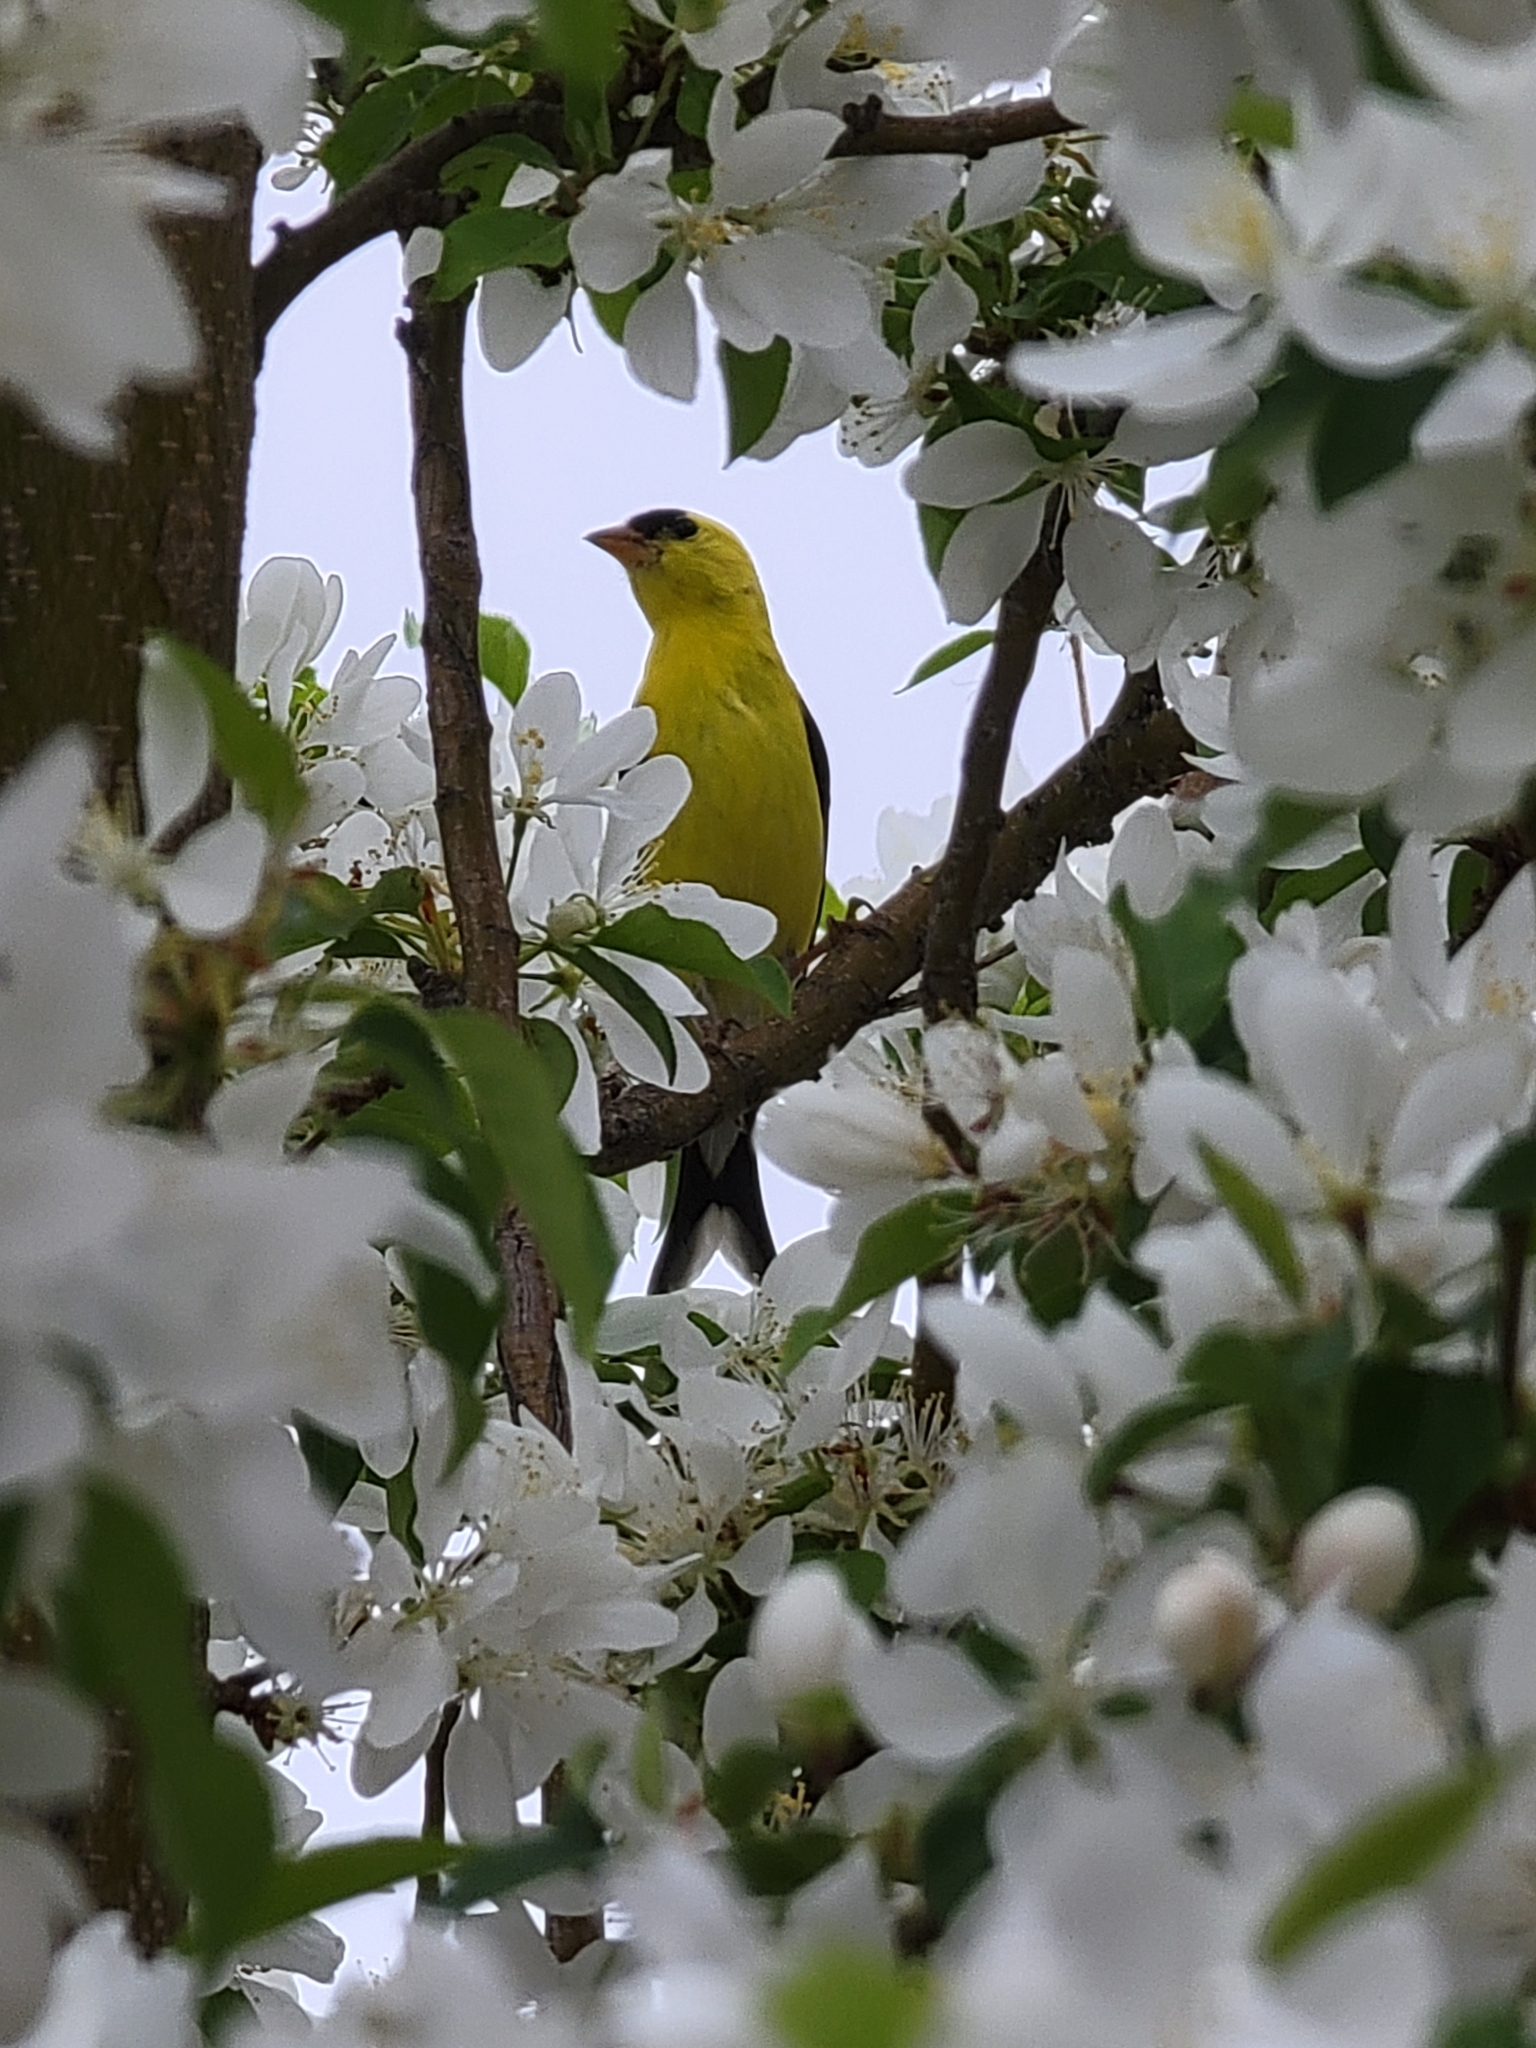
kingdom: Animalia
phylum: Chordata
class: Aves
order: Passeriformes
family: Fringillidae
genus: Spinus
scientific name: Spinus tristis
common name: American goldfinch
